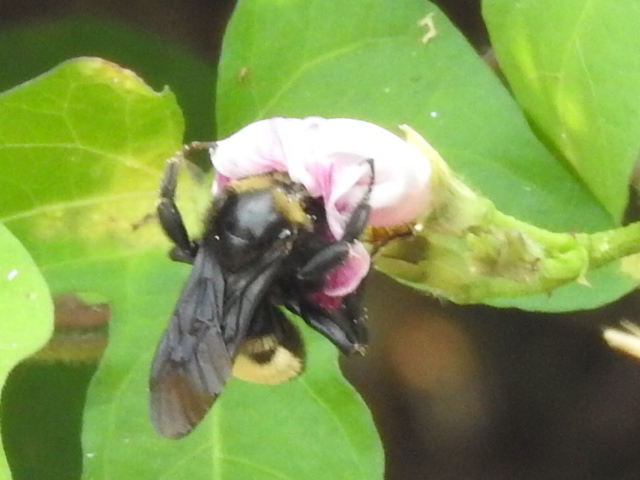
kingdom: Animalia
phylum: Arthropoda
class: Insecta
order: Hymenoptera
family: Apidae
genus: Bombus
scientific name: Bombus pensylvanicus
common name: Bumble bee
